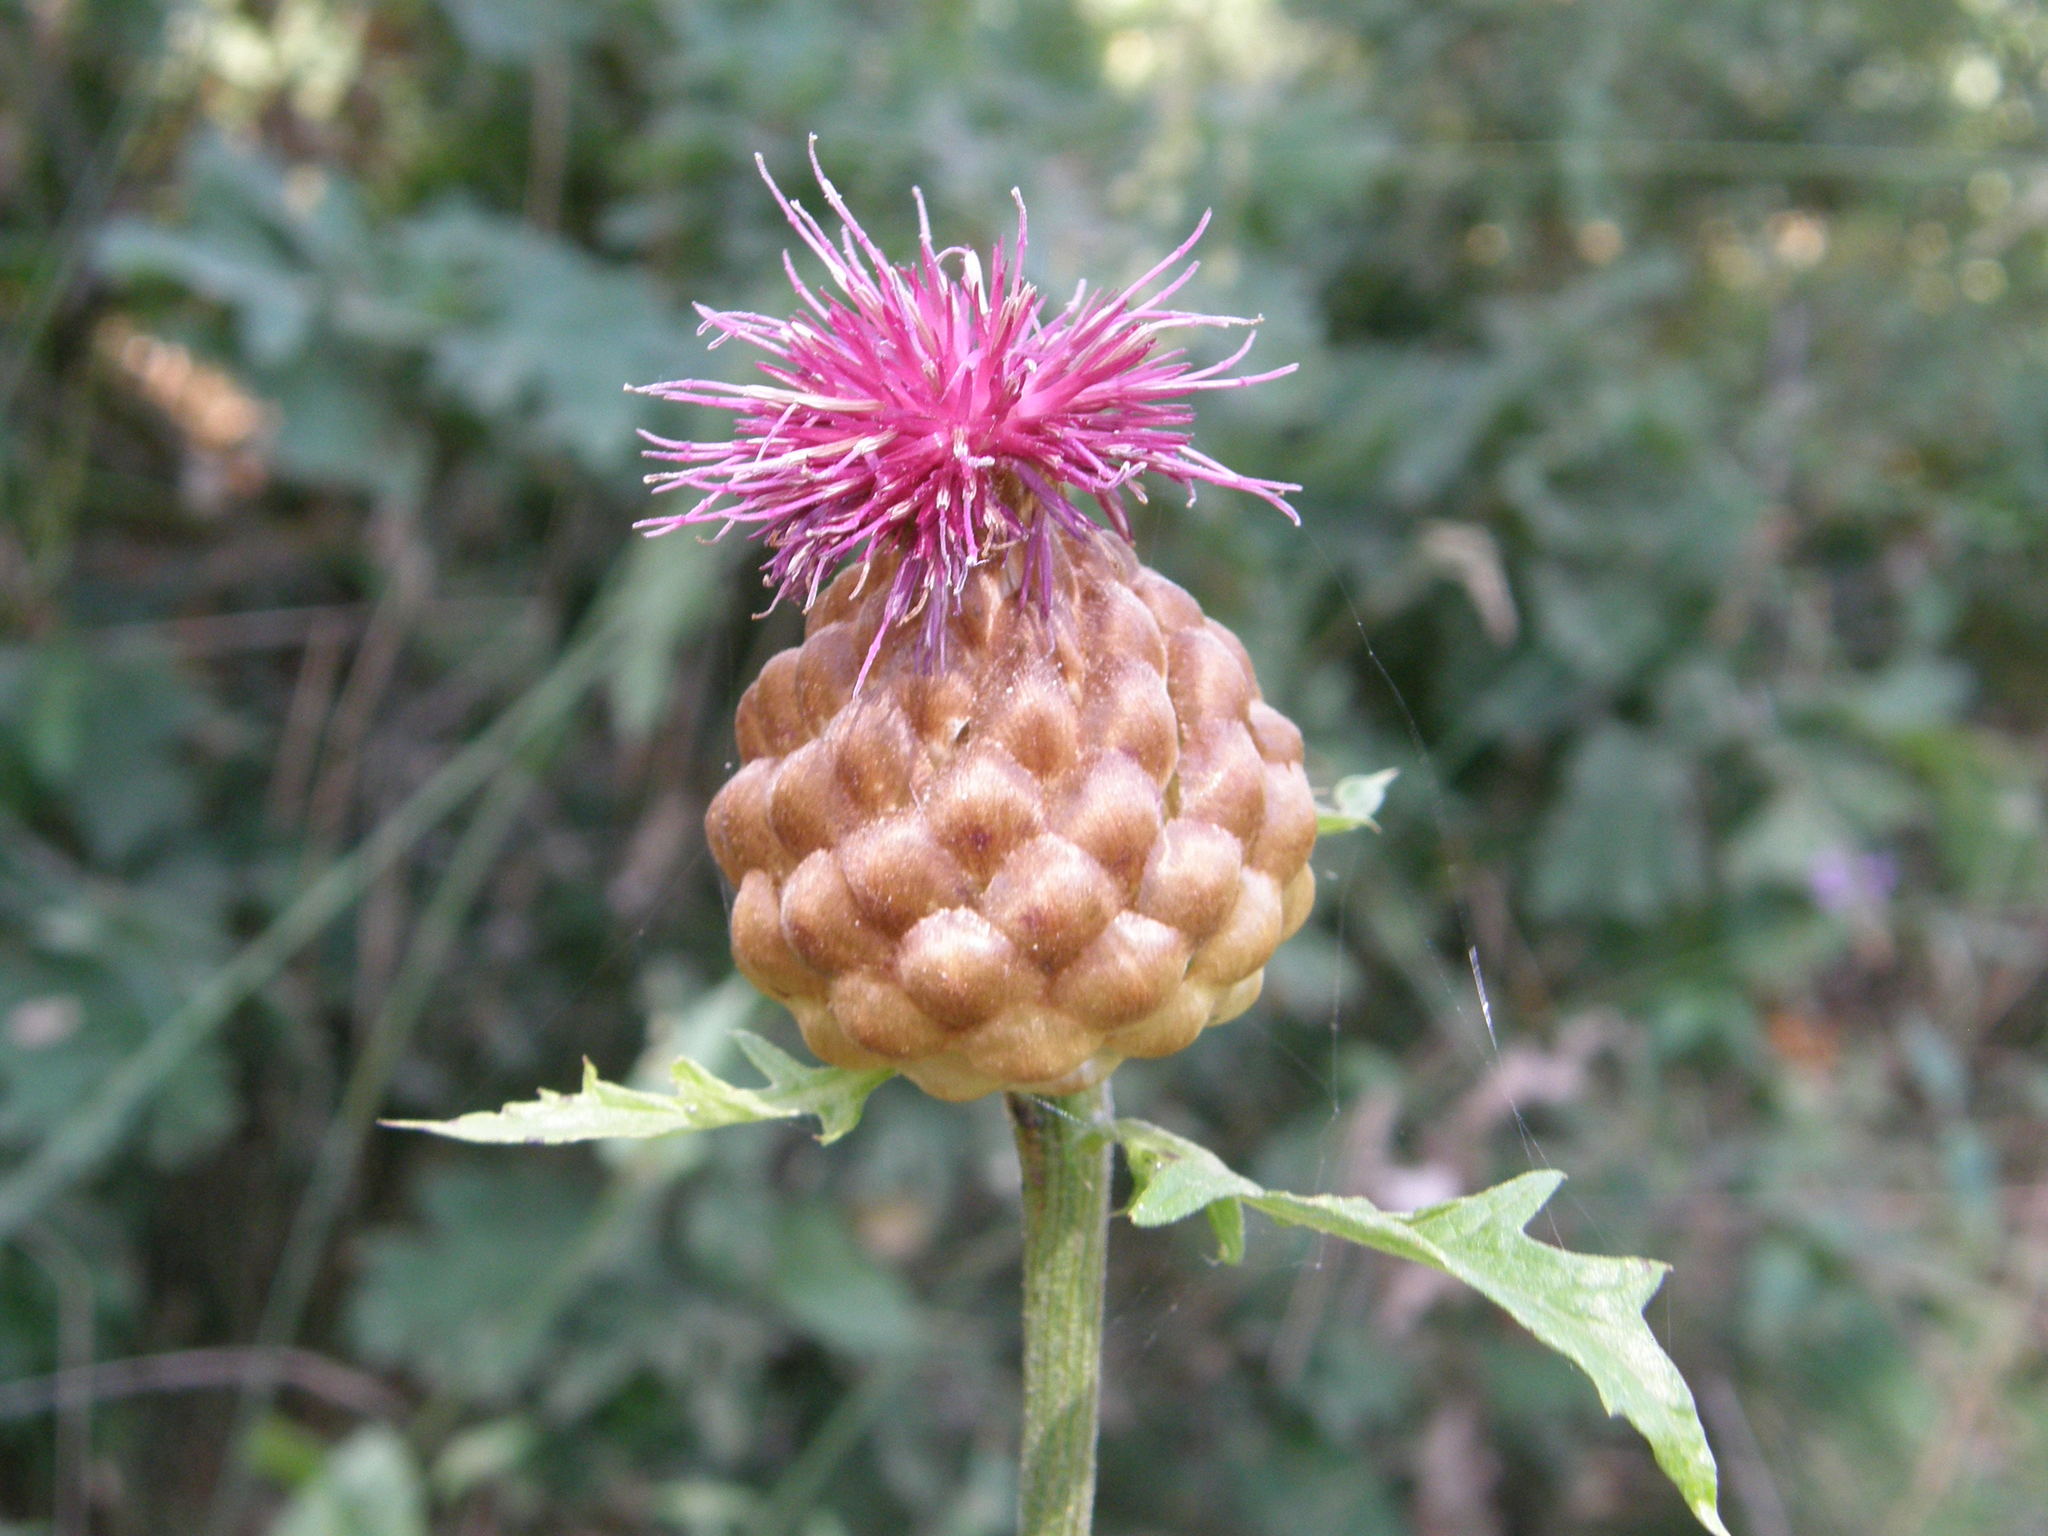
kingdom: Plantae
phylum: Tracheophyta
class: Magnoliopsida
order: Asterales
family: Asteraceae
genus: Leuzea
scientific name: Leuzea exaltata
